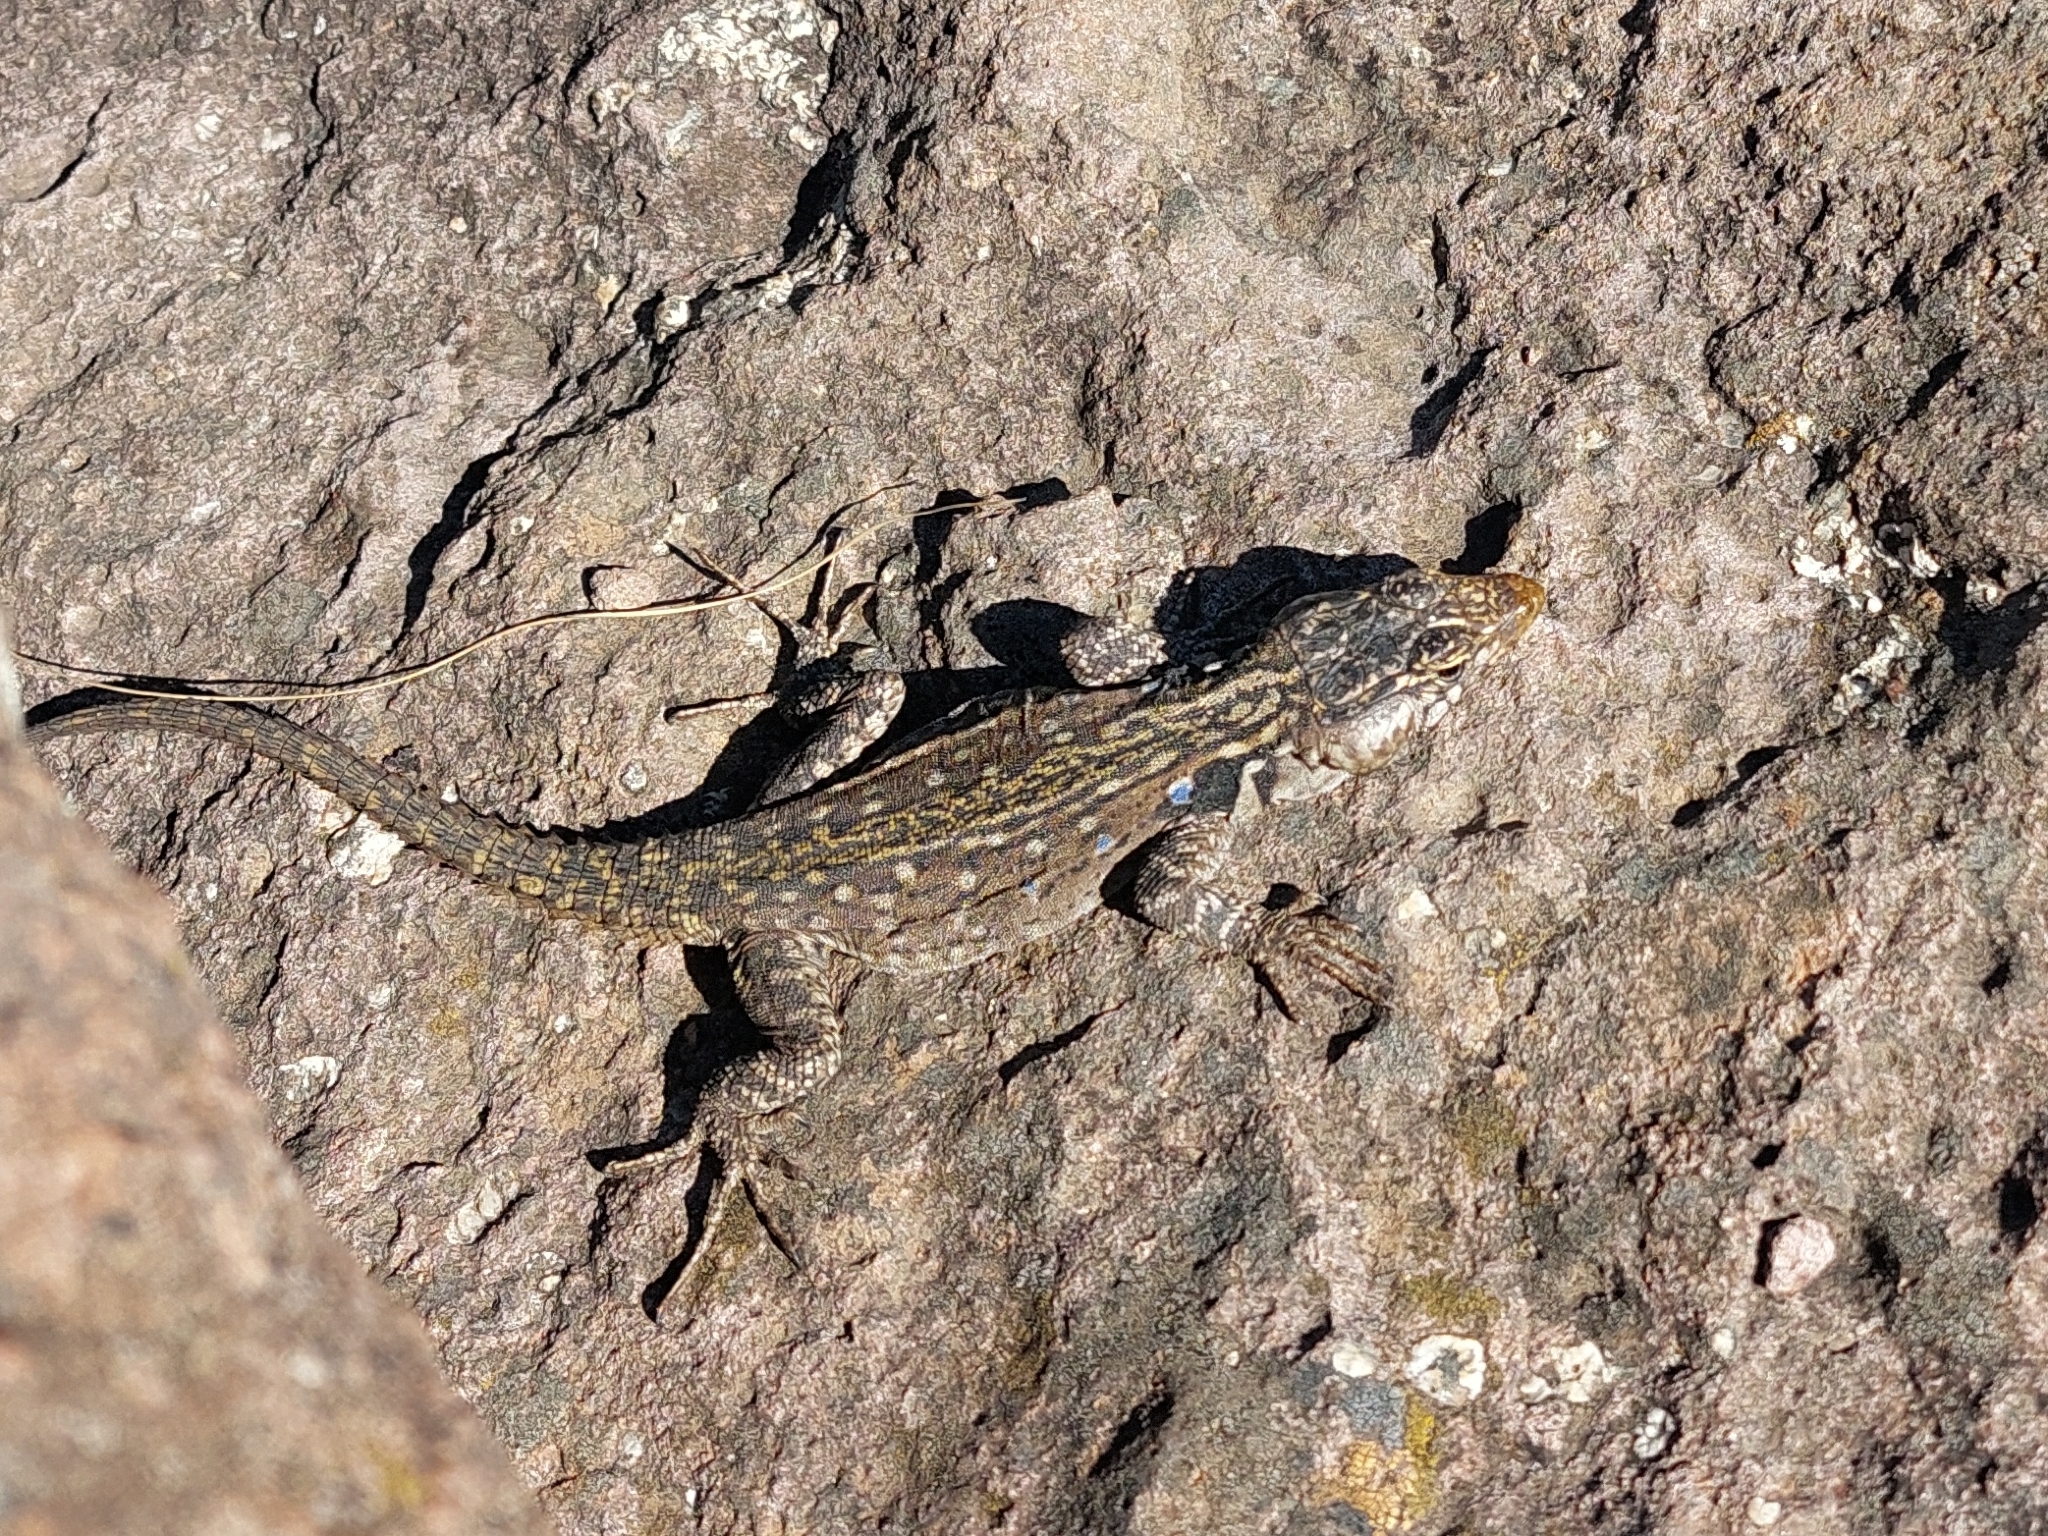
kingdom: Animalia
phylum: Chordata
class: Squamata
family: Cordylidae
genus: Pseudocordylus
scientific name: Pseudocordylus langi
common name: Lang’s crag lizard
